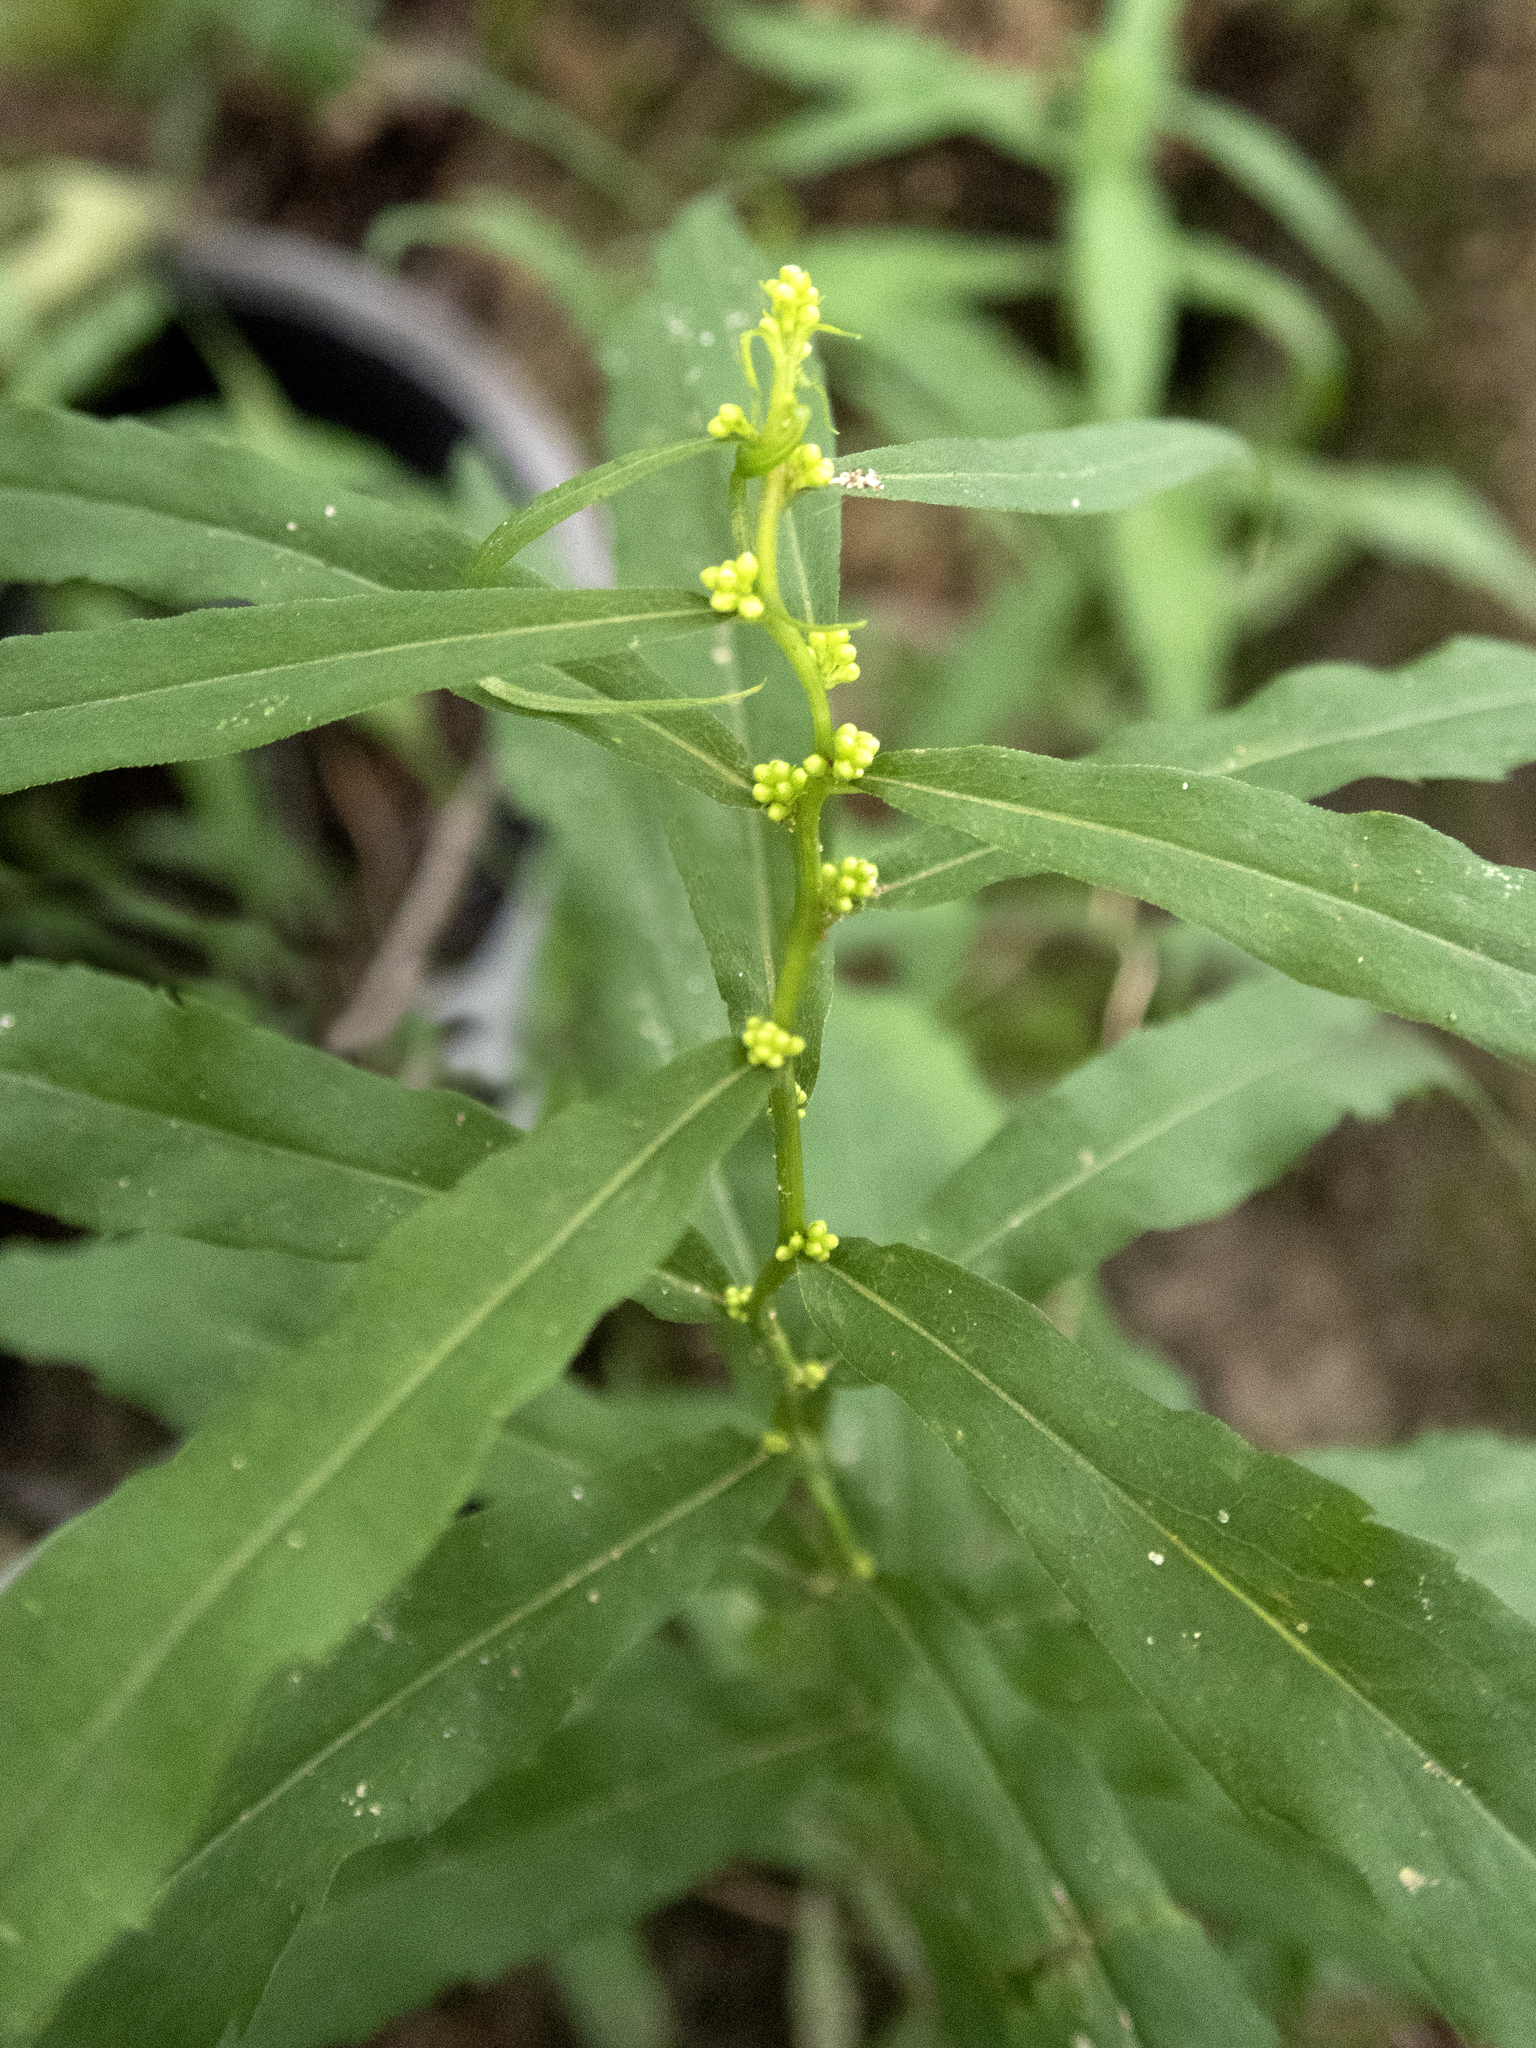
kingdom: Plantae
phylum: Tracheophyta
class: Magnoliopsida
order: Asterales
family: Asteraceae
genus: Solidago
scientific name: Solidago caesia
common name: Woodland goldenrod
